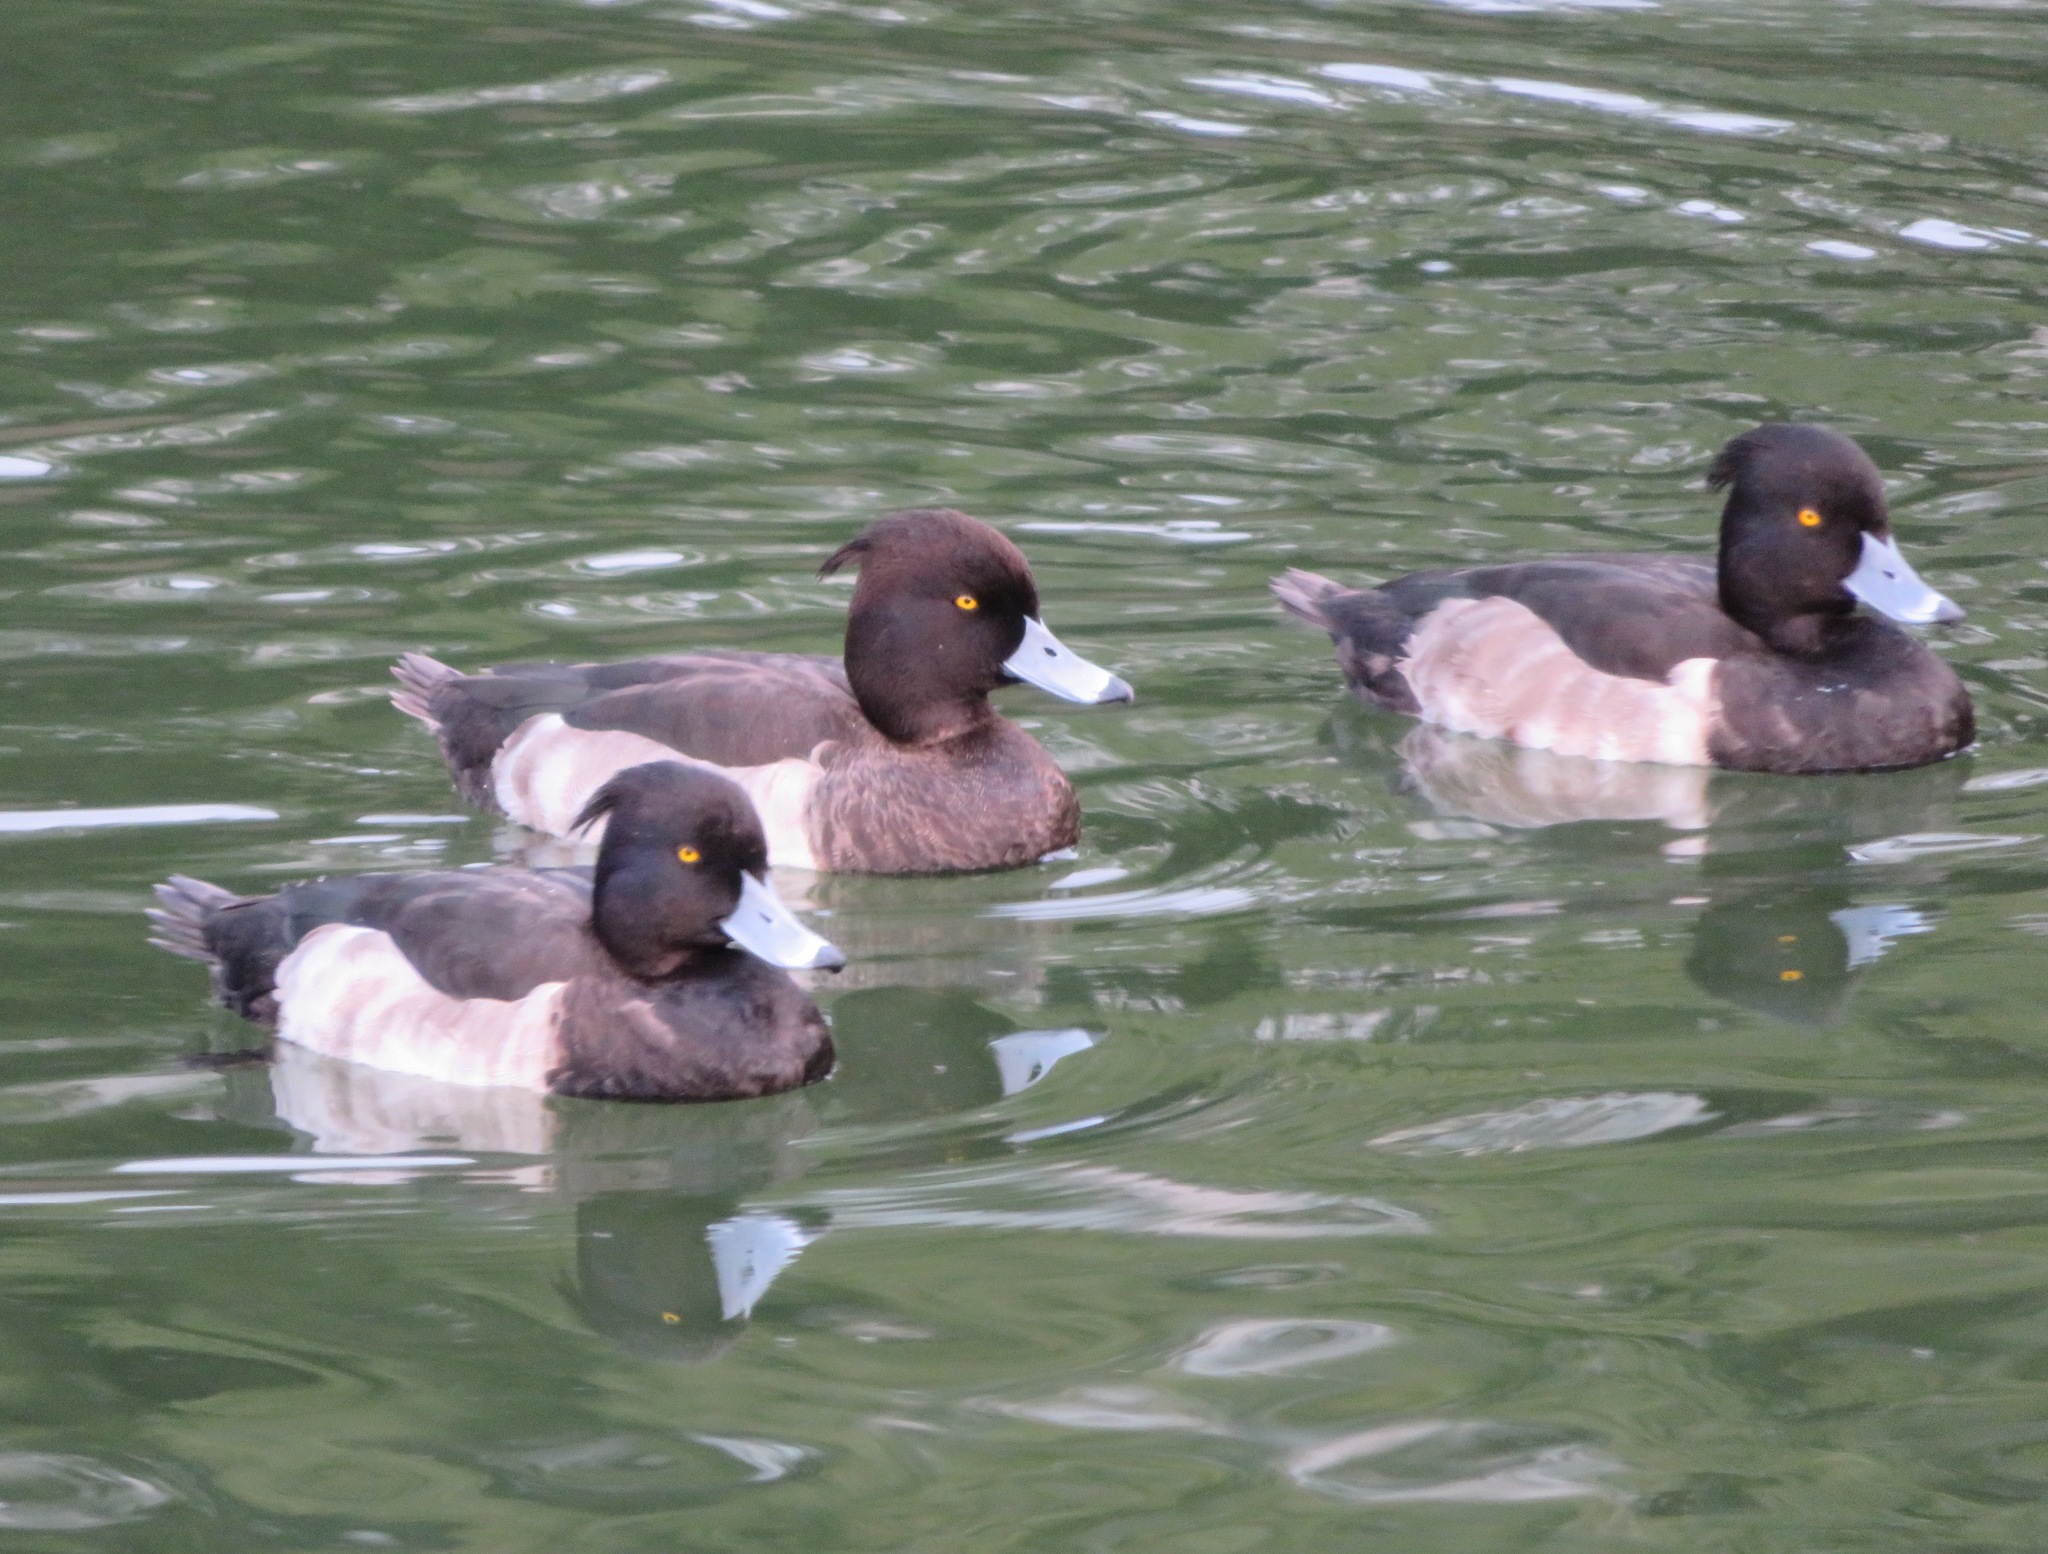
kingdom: Animalia
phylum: Chordata
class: Aves
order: Anseriformes
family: Anatidae
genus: Aythya
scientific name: Aythya fuligula
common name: Tufted duck
